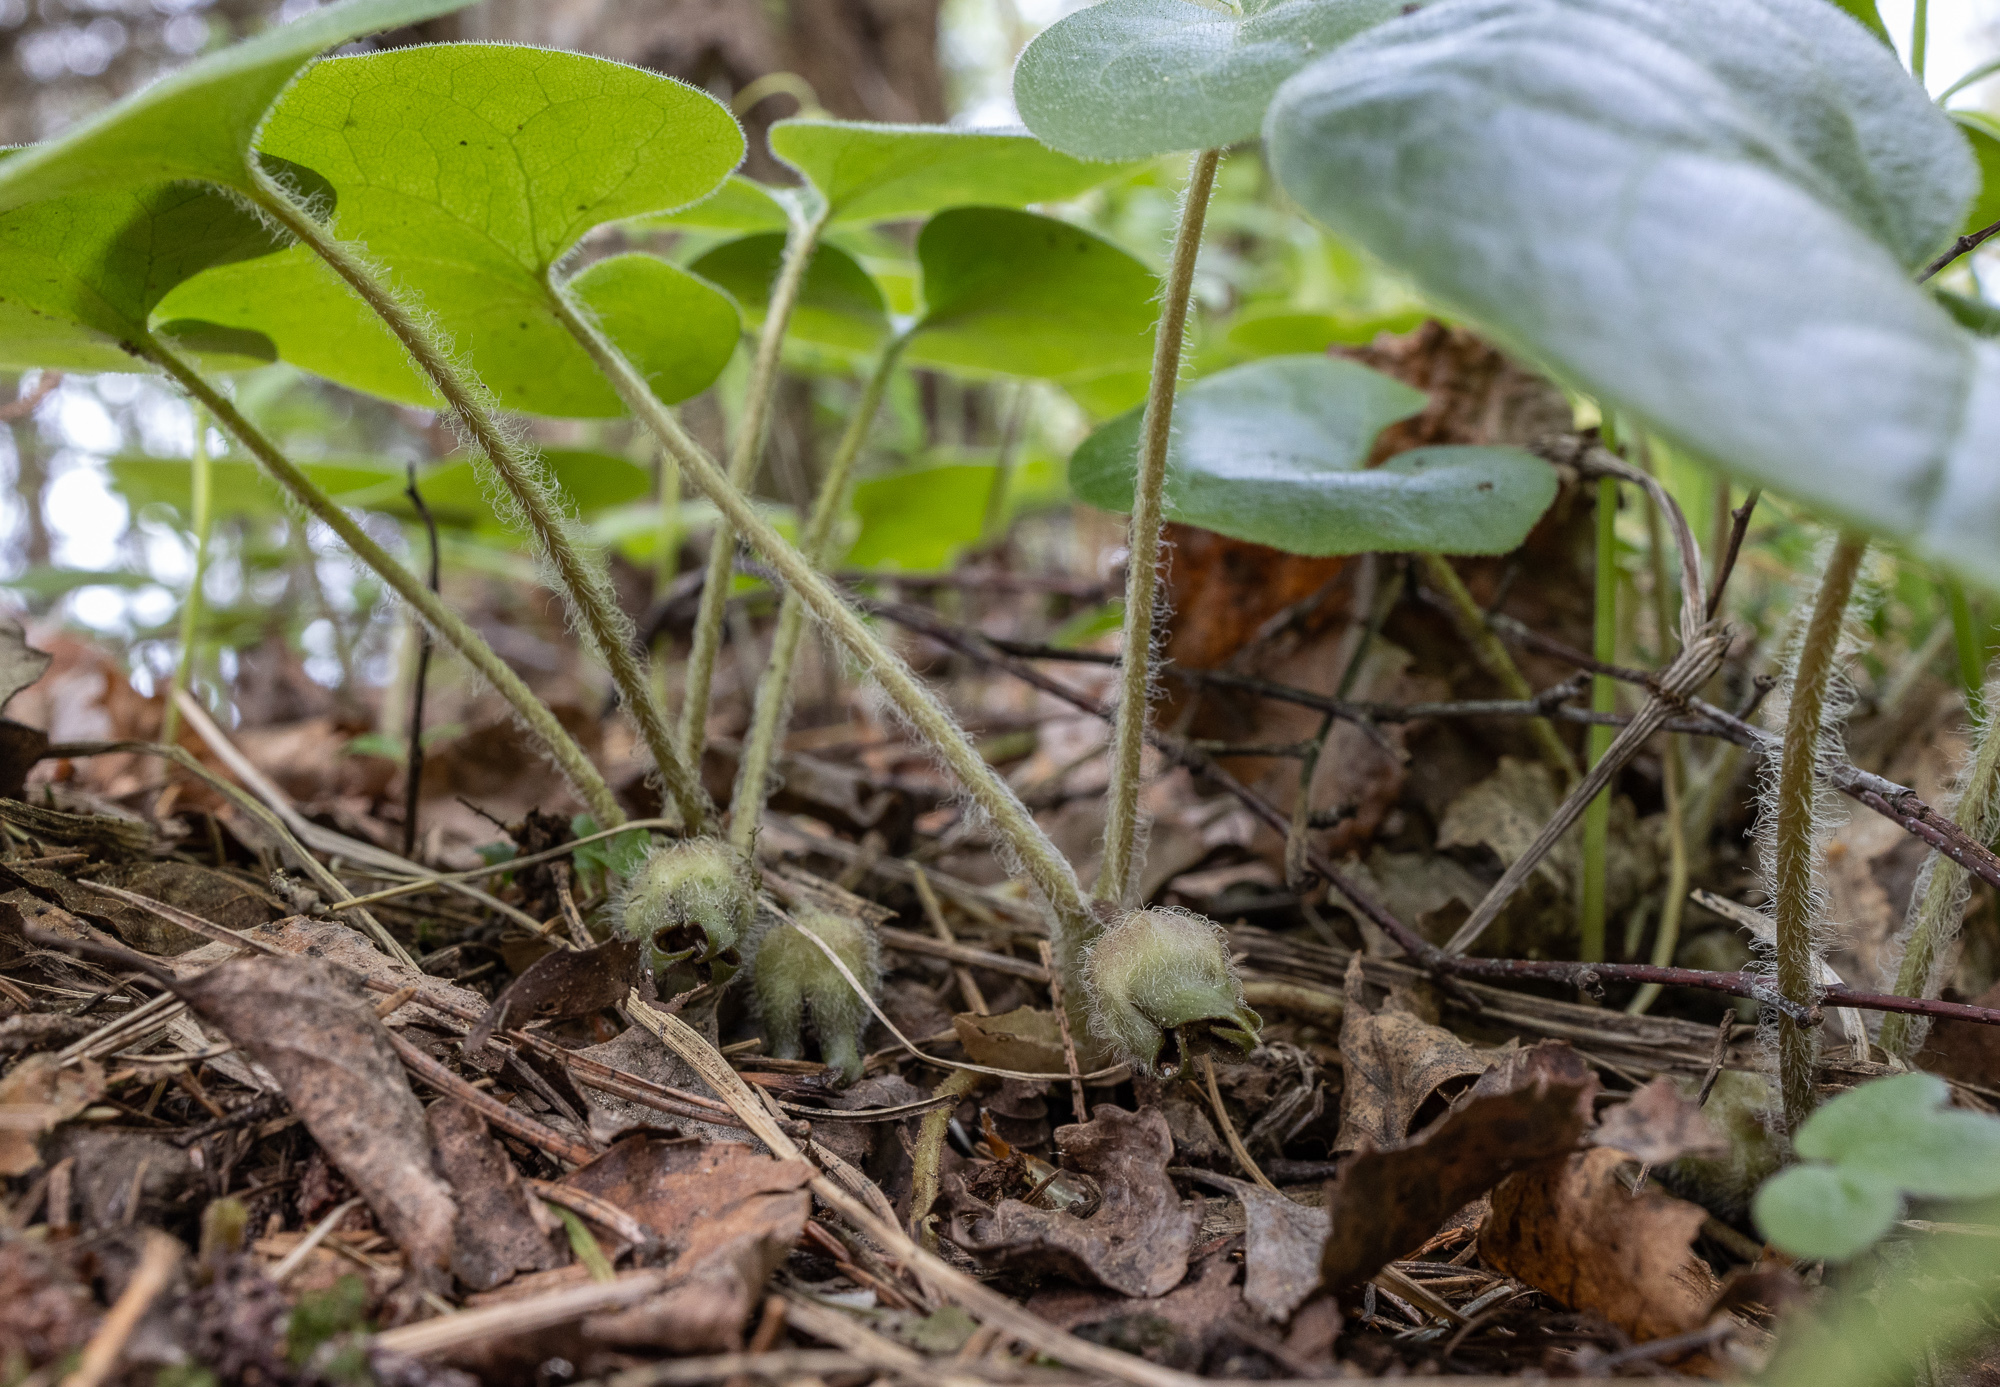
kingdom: Plantae
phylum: Tracheophyta
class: Magnoliopsida
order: Piperales
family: Aristolochiaceae
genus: Asarum
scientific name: Asarum europaeum
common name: Asarabacca
